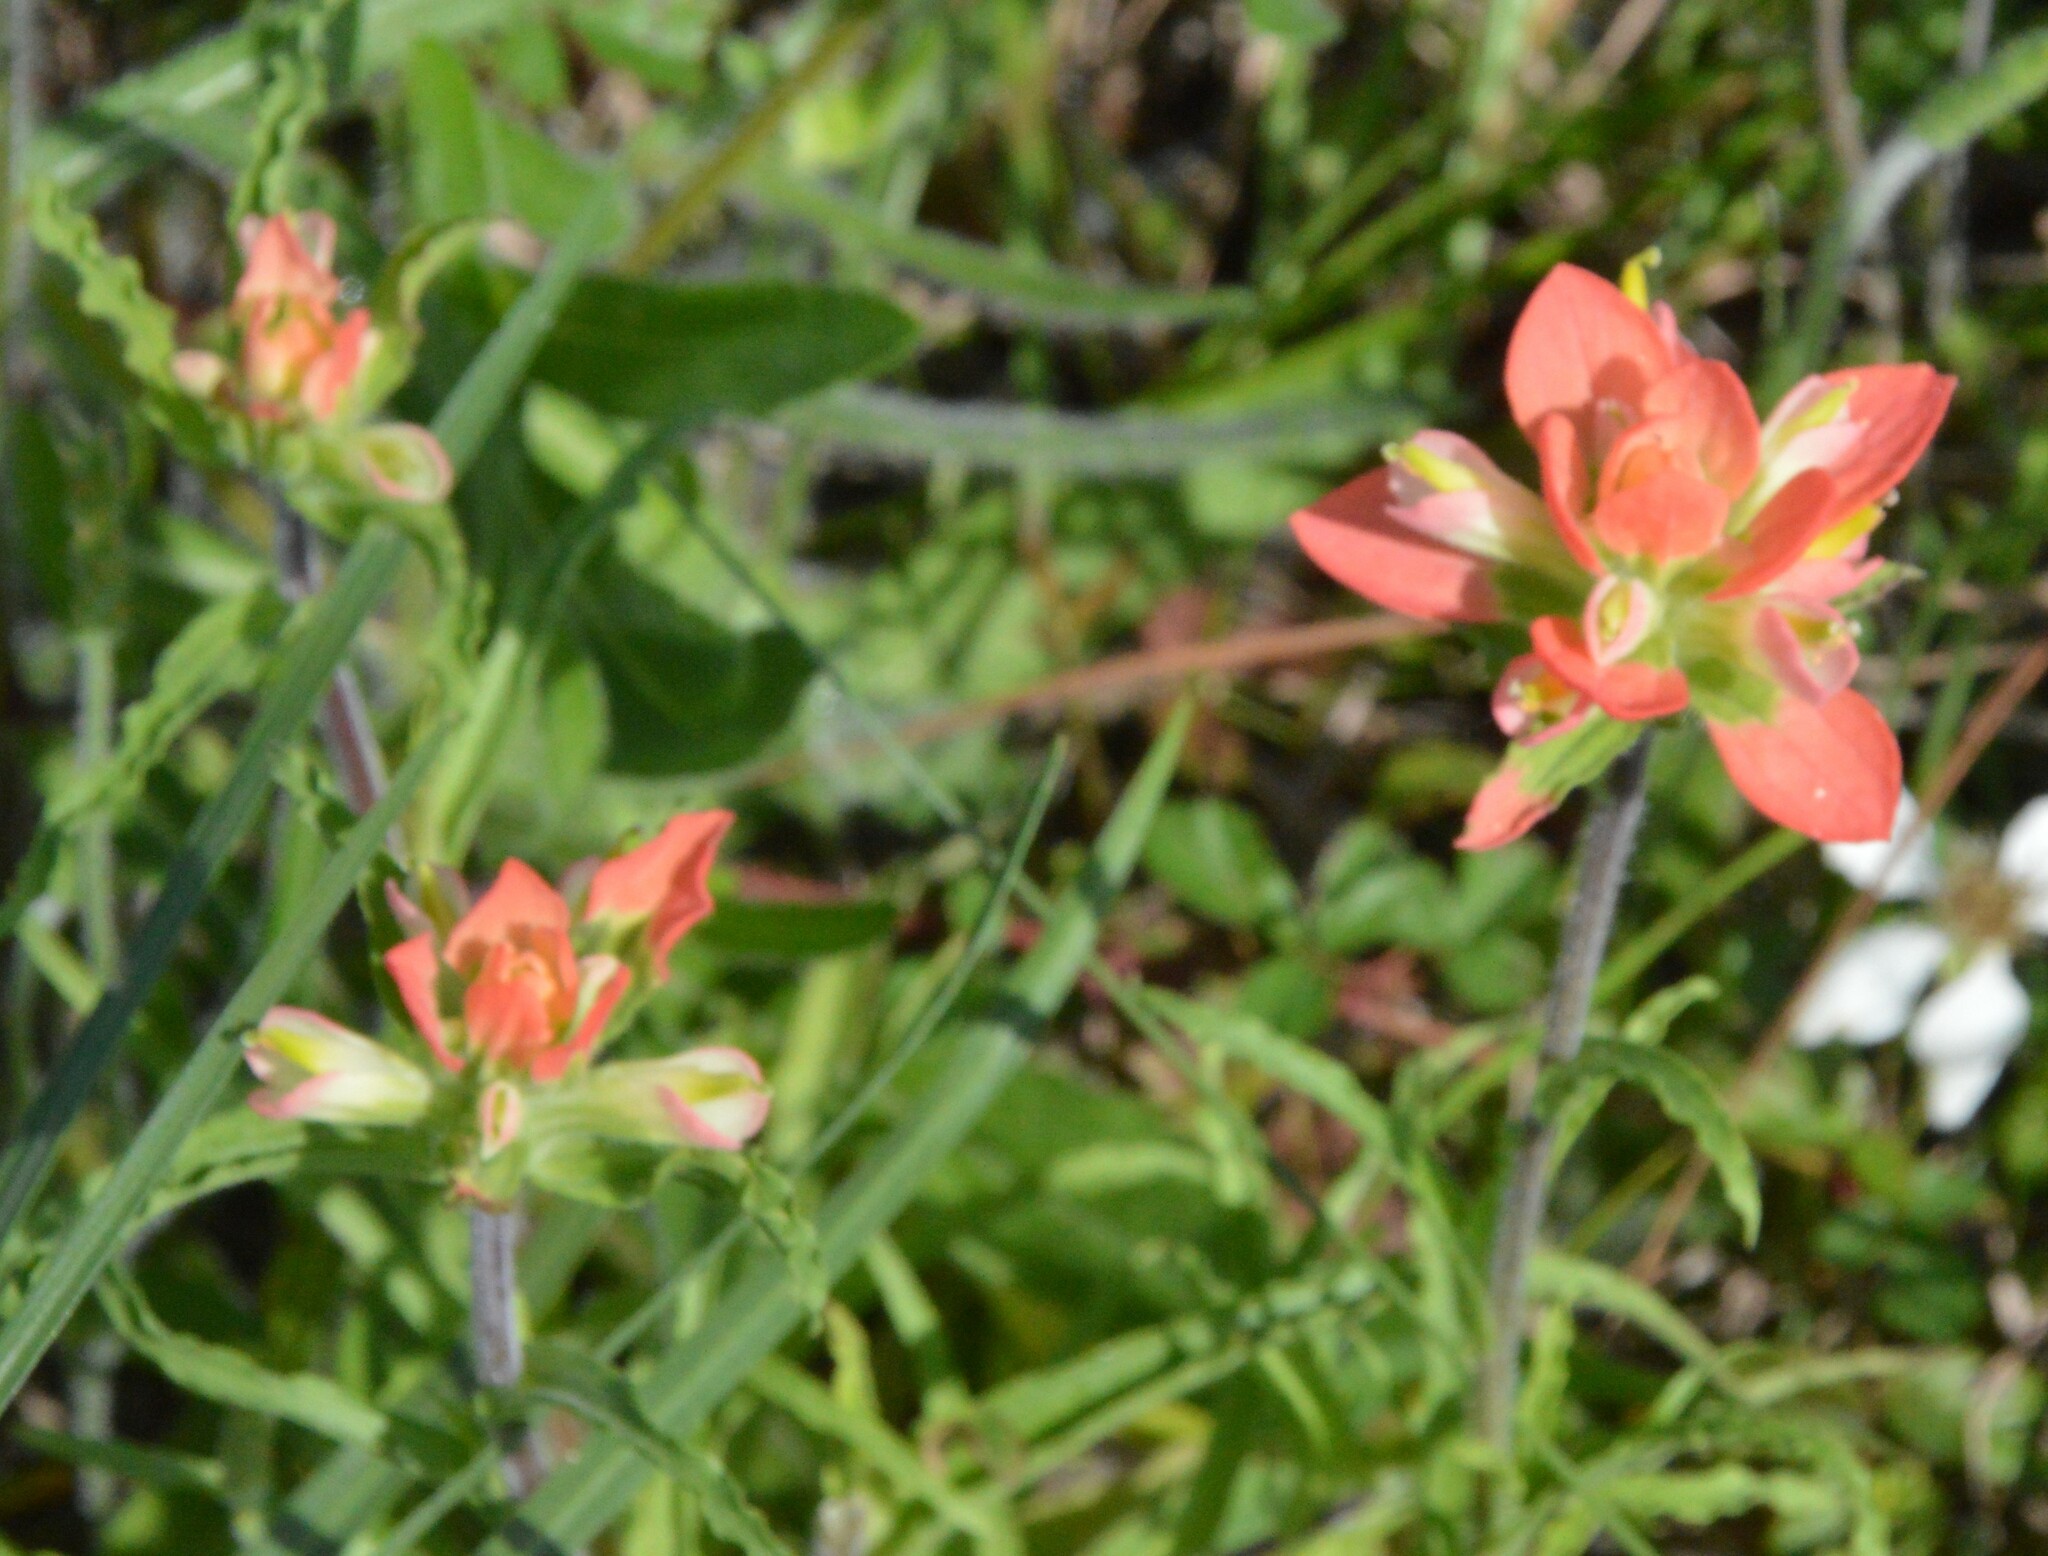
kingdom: Plantae
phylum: Tracheophyta
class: Magnoliopsida
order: Lamiales
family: Orobanchaceae
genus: Castilleja
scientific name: Castilleja indivisa
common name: Texas paintbrush
